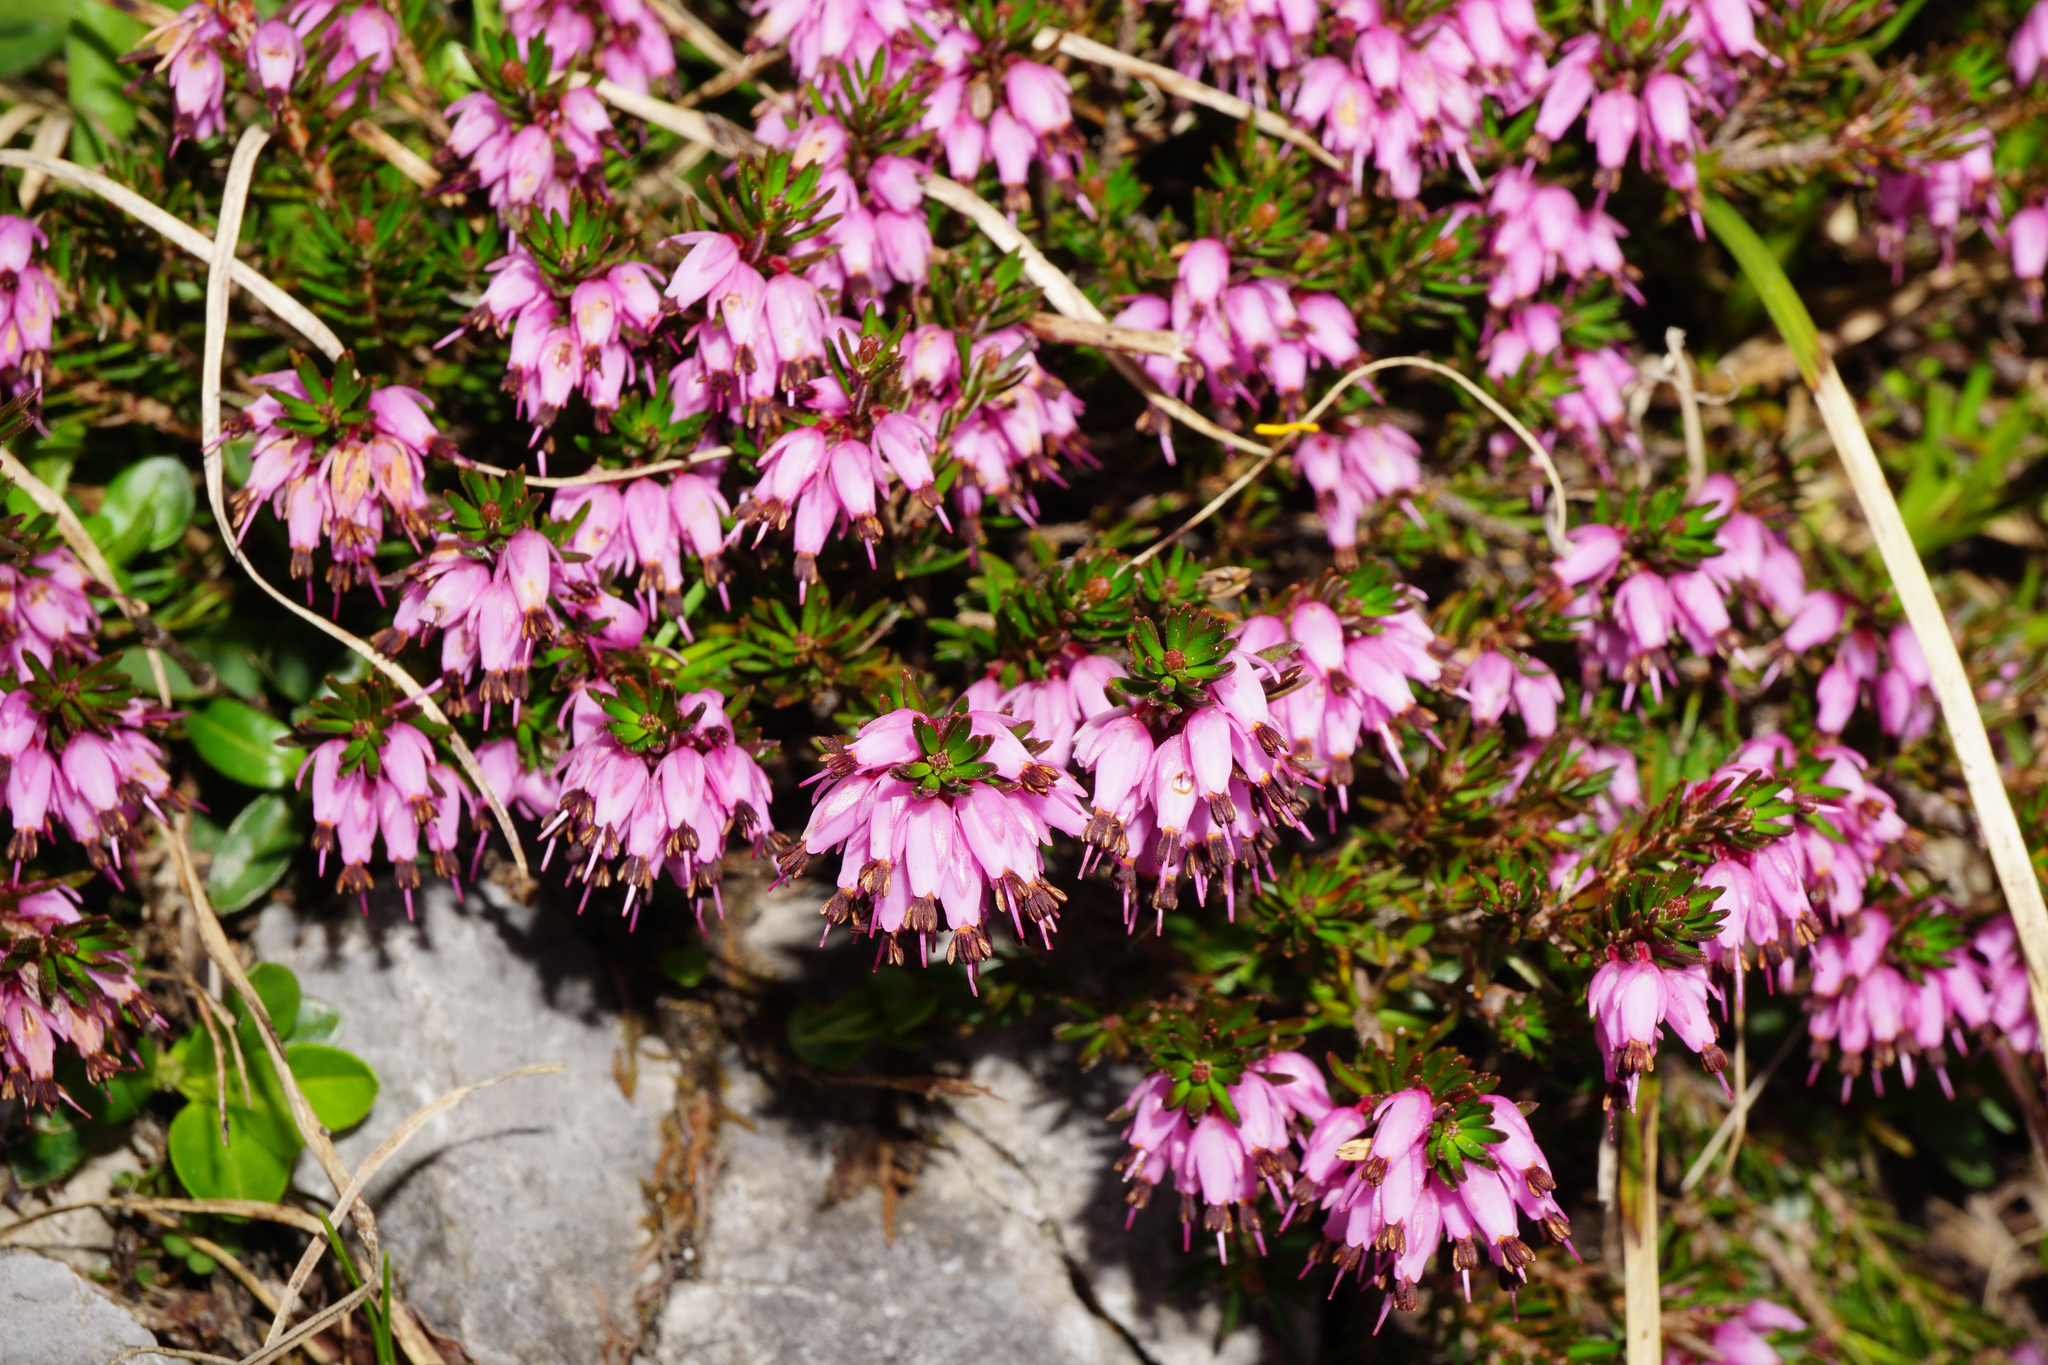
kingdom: Plantae
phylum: Tracheophyta
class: Magnoliopsida
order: Ericales
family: Ericaceae
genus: Erica
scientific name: Erica carnea
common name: Winter heath
